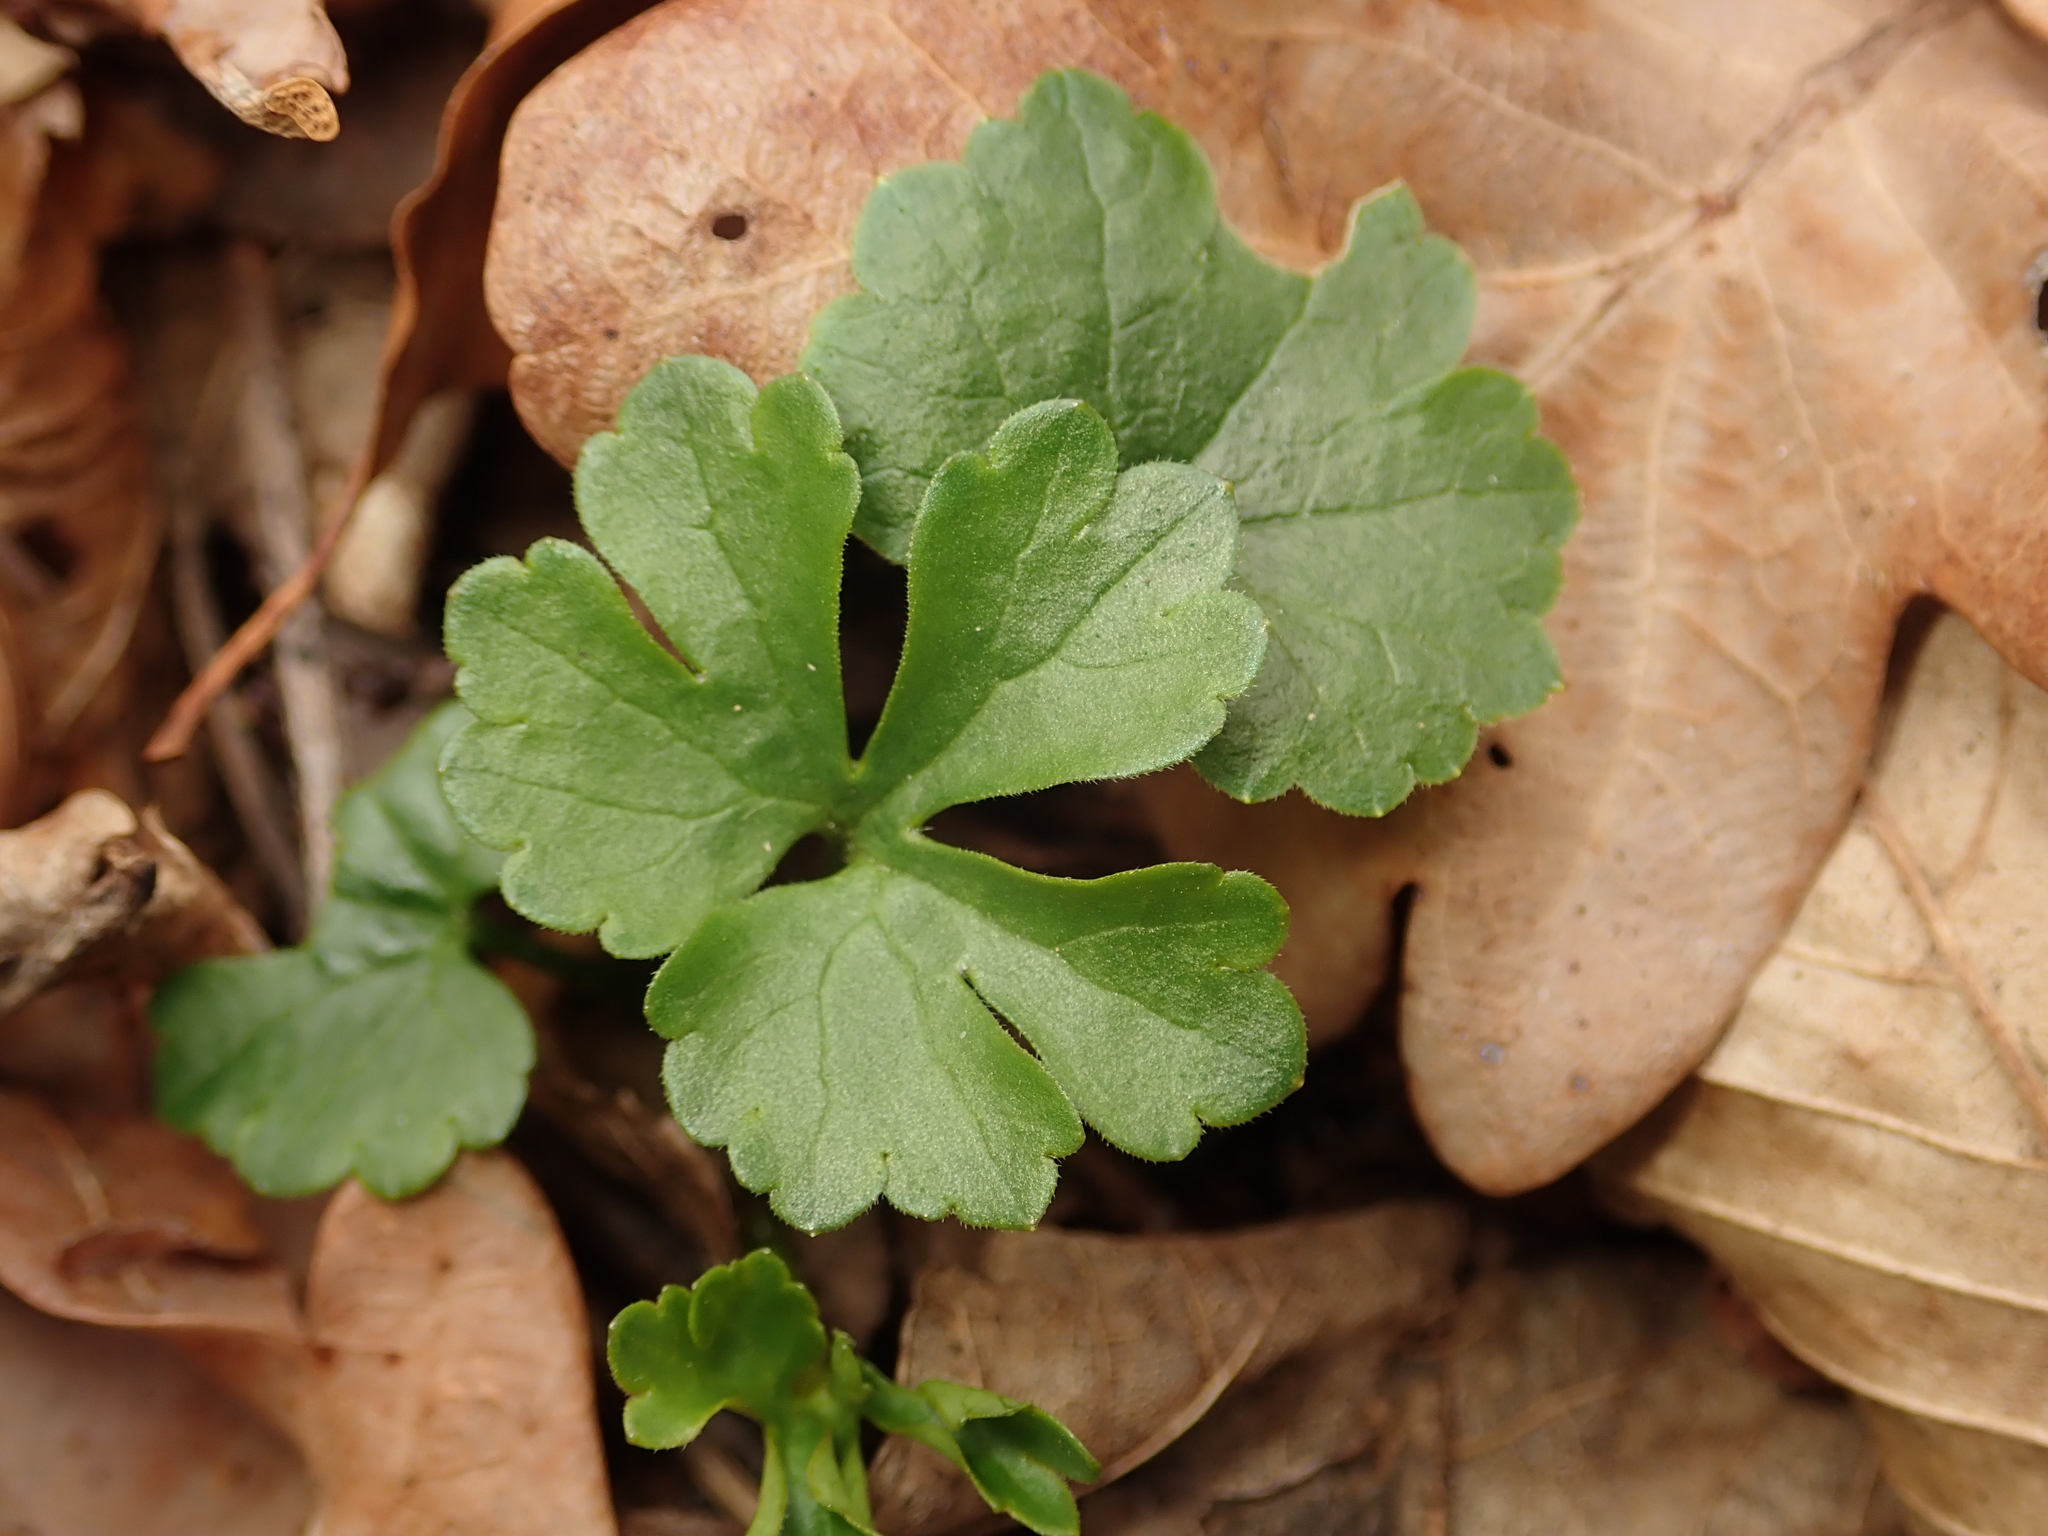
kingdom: Plantae
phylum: Tracheophyta
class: Magnoliopsida
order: Ranunculales
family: Ranunculaceae
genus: Ranunculus
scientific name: Ranunculus auricomus
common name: Goldilocks buttercup
